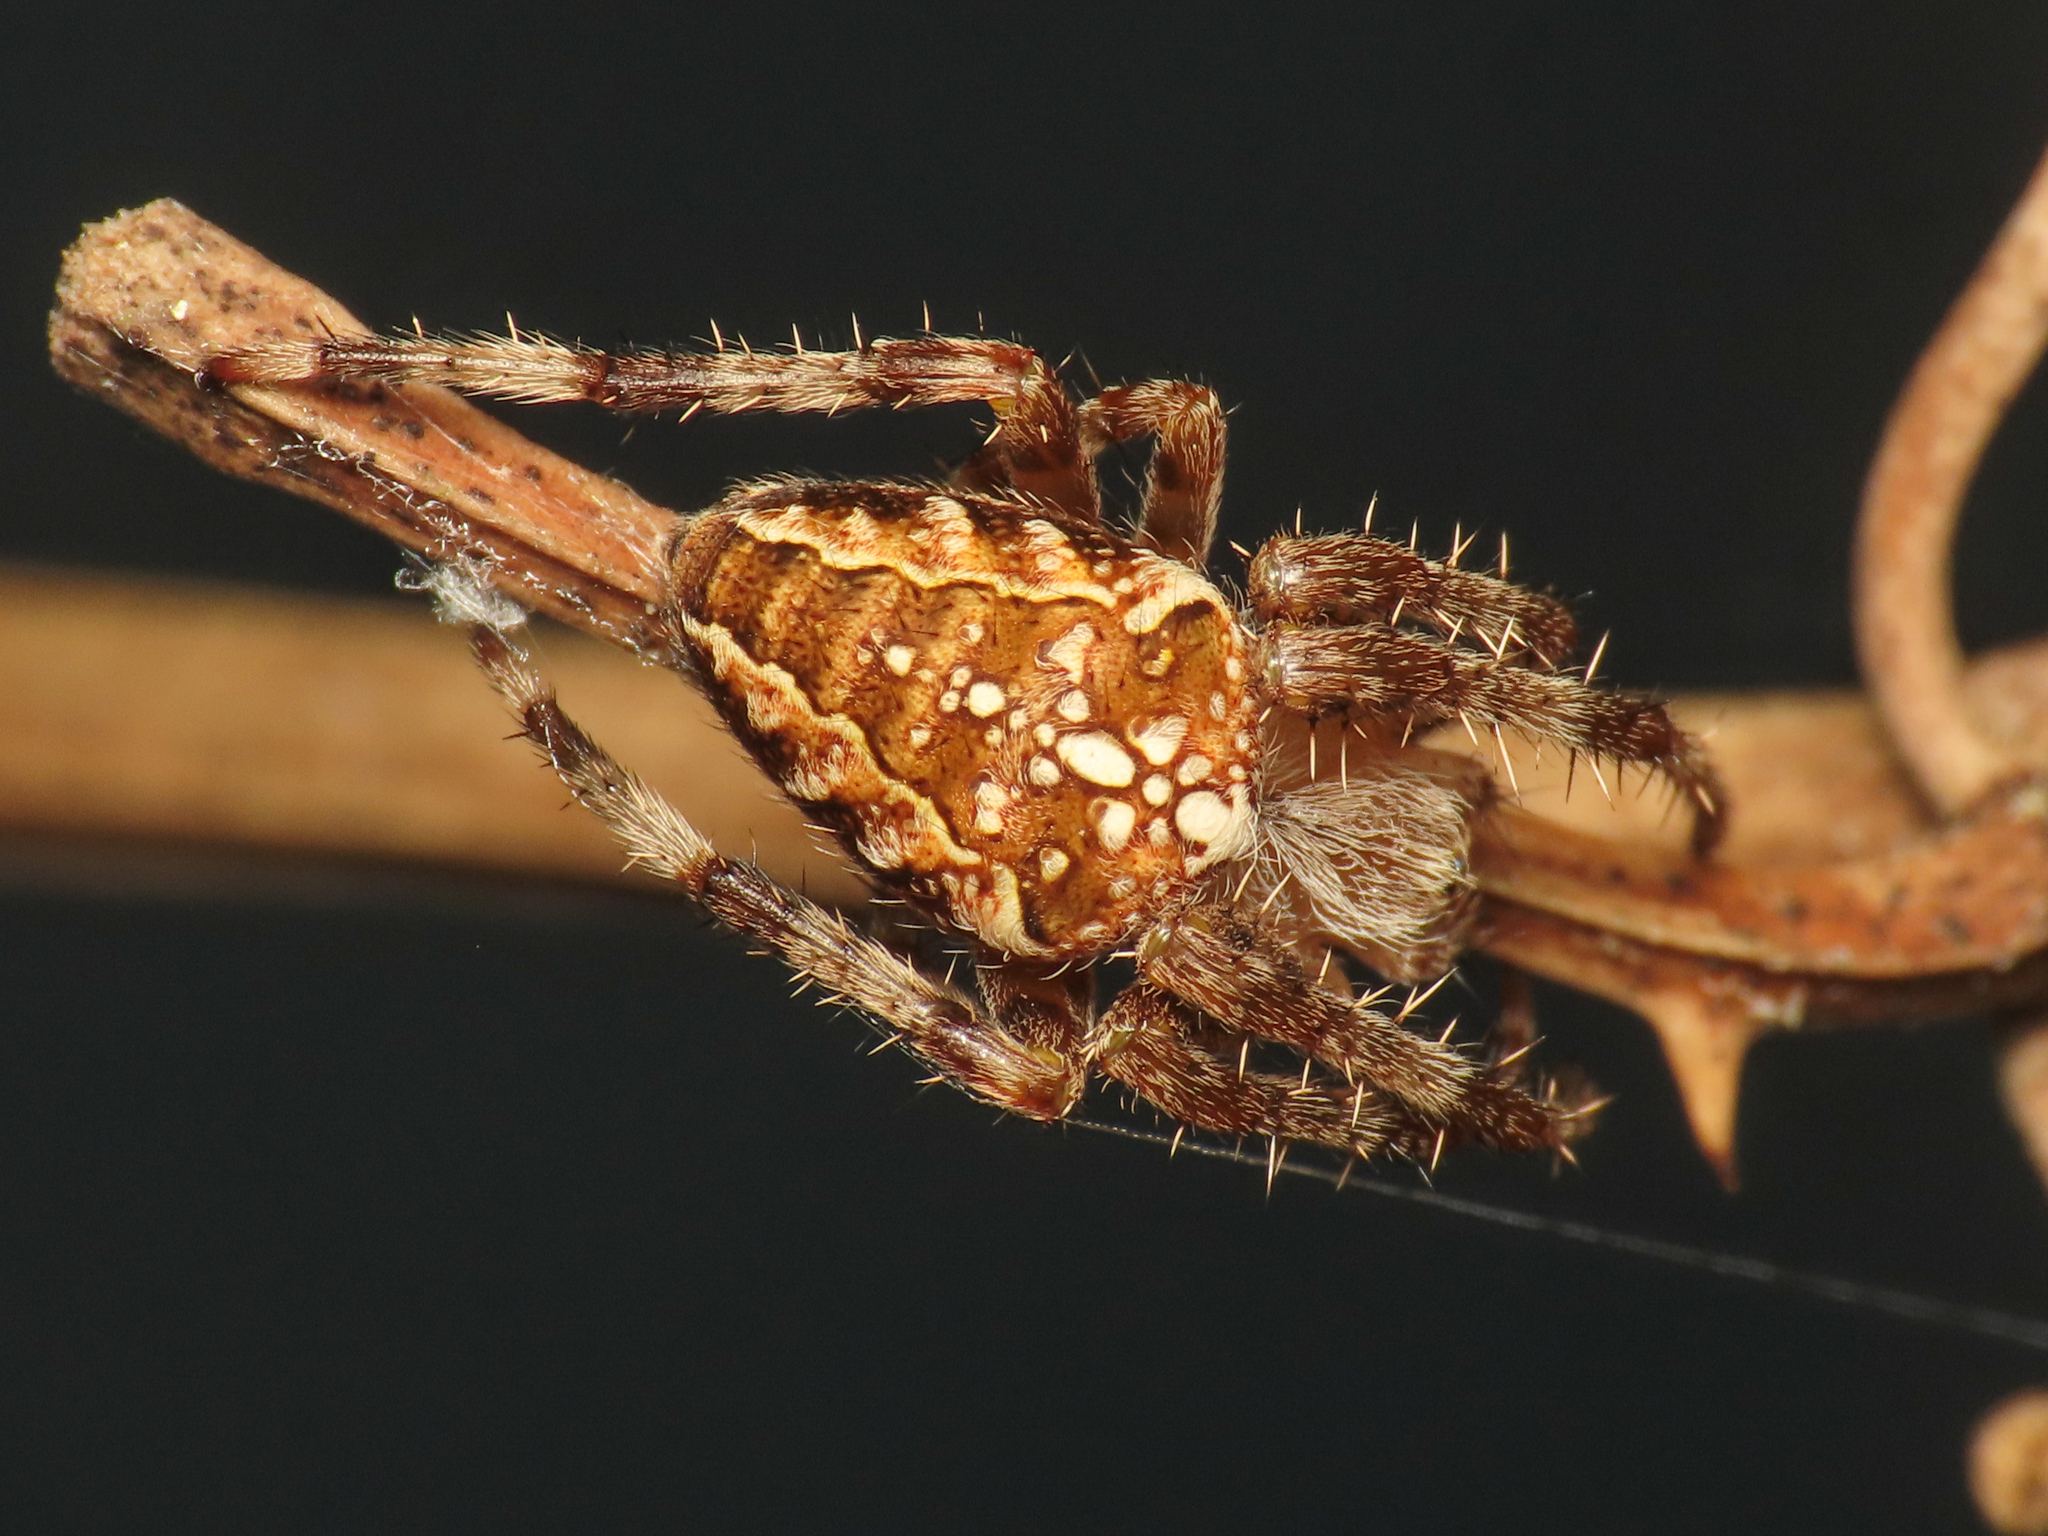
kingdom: Animalia
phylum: Arthropoda
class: Arachnida
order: Araneae
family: Araneidae
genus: Araneus
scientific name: Araneus diadematus
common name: Cross orbweaver
